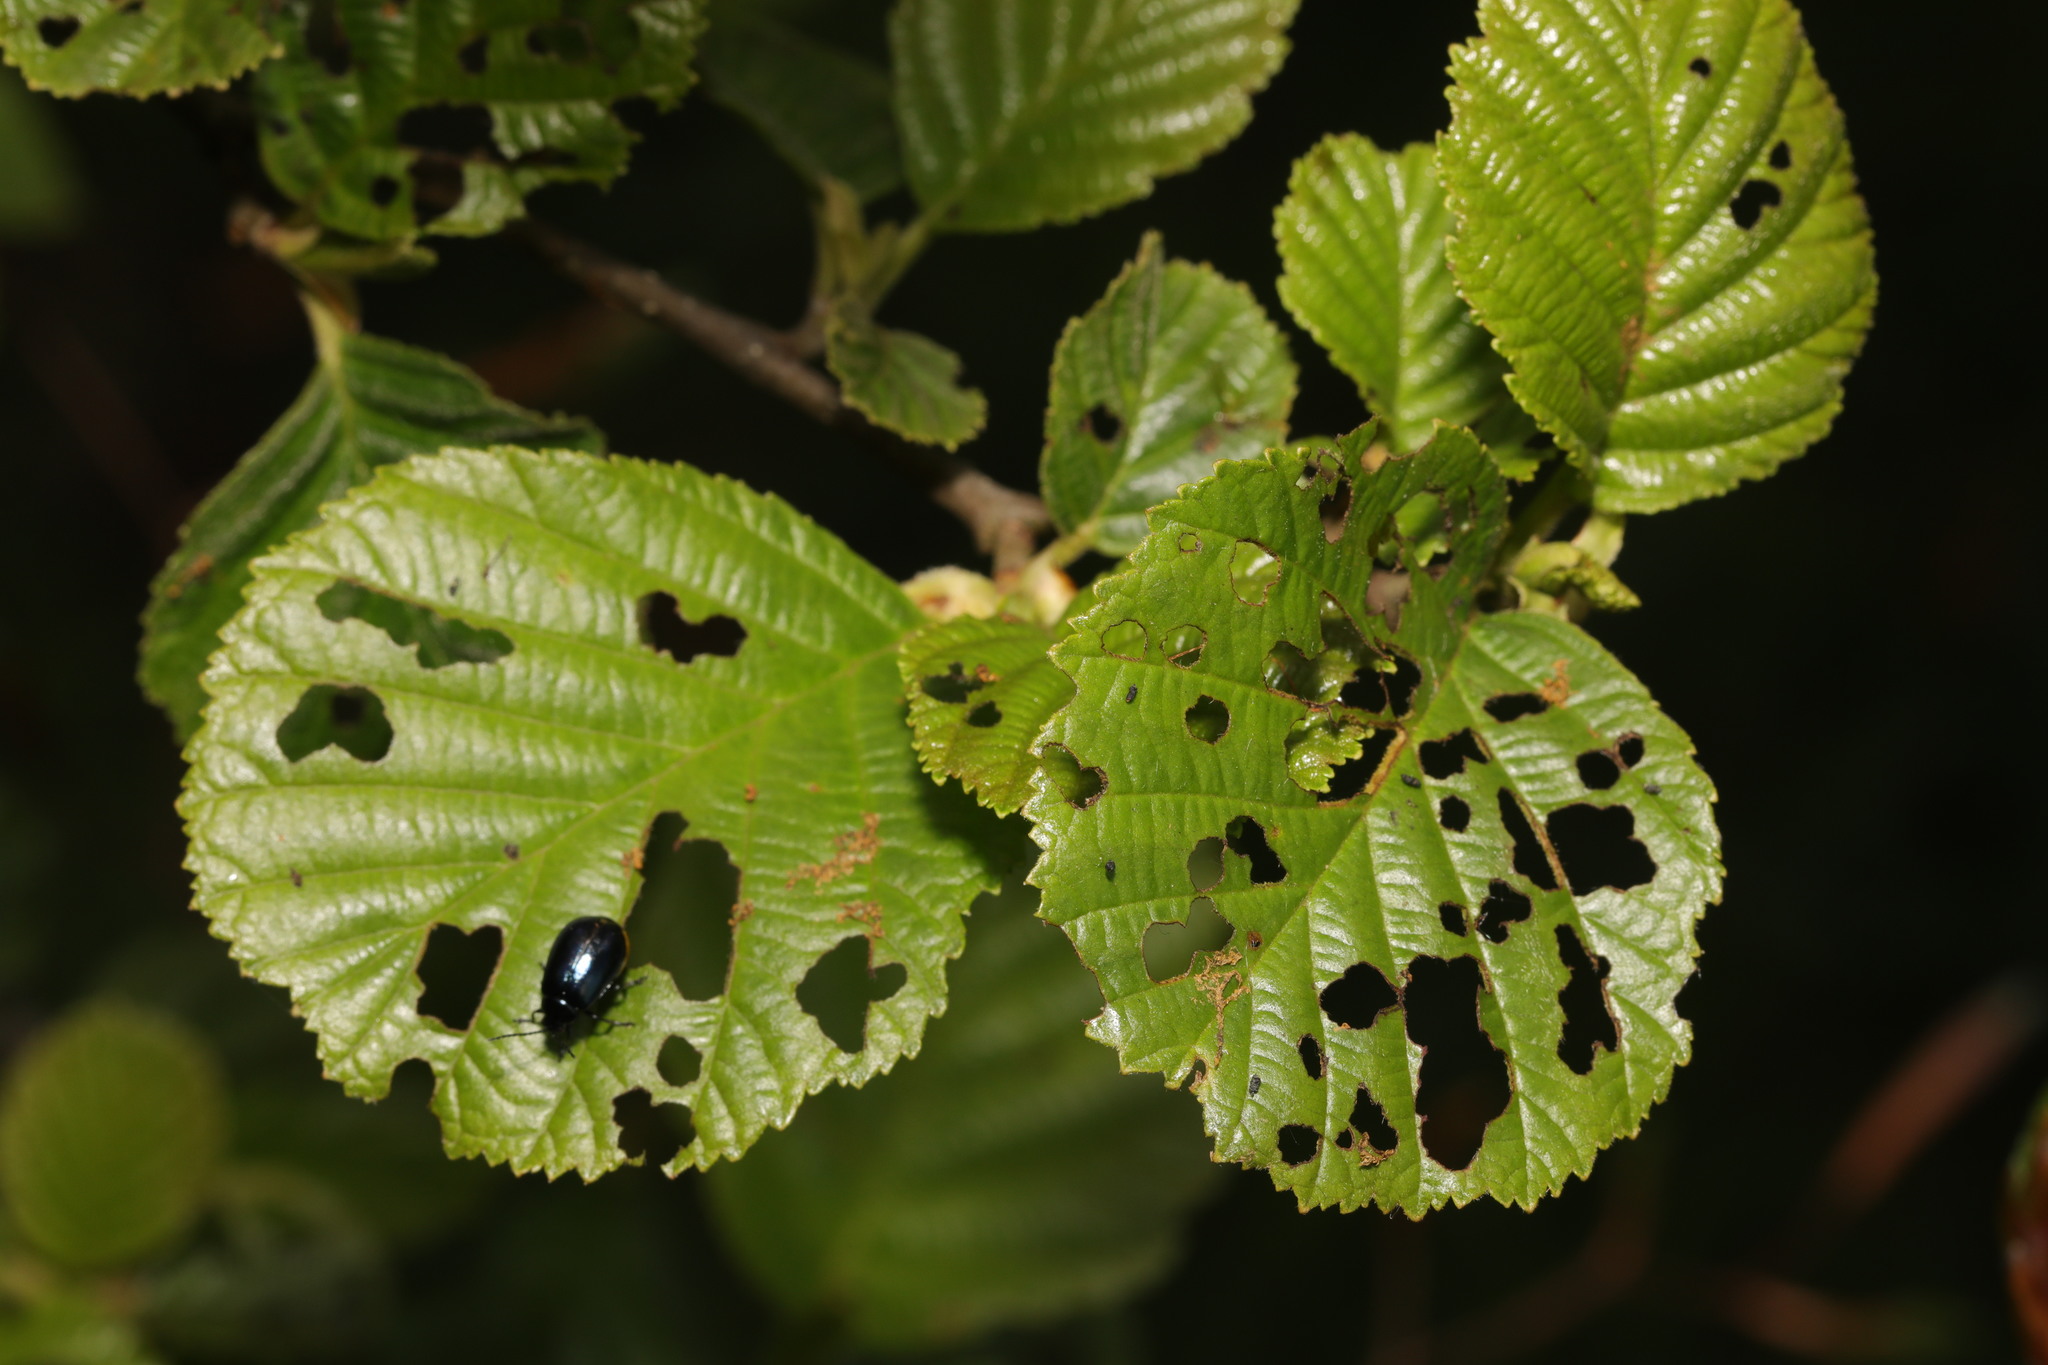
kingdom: Plantae
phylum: Tracheophyta
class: Magnoliopsida
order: Fagales
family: Betulaceae
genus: Alnus
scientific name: Alnus glutinosa
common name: Black alder
